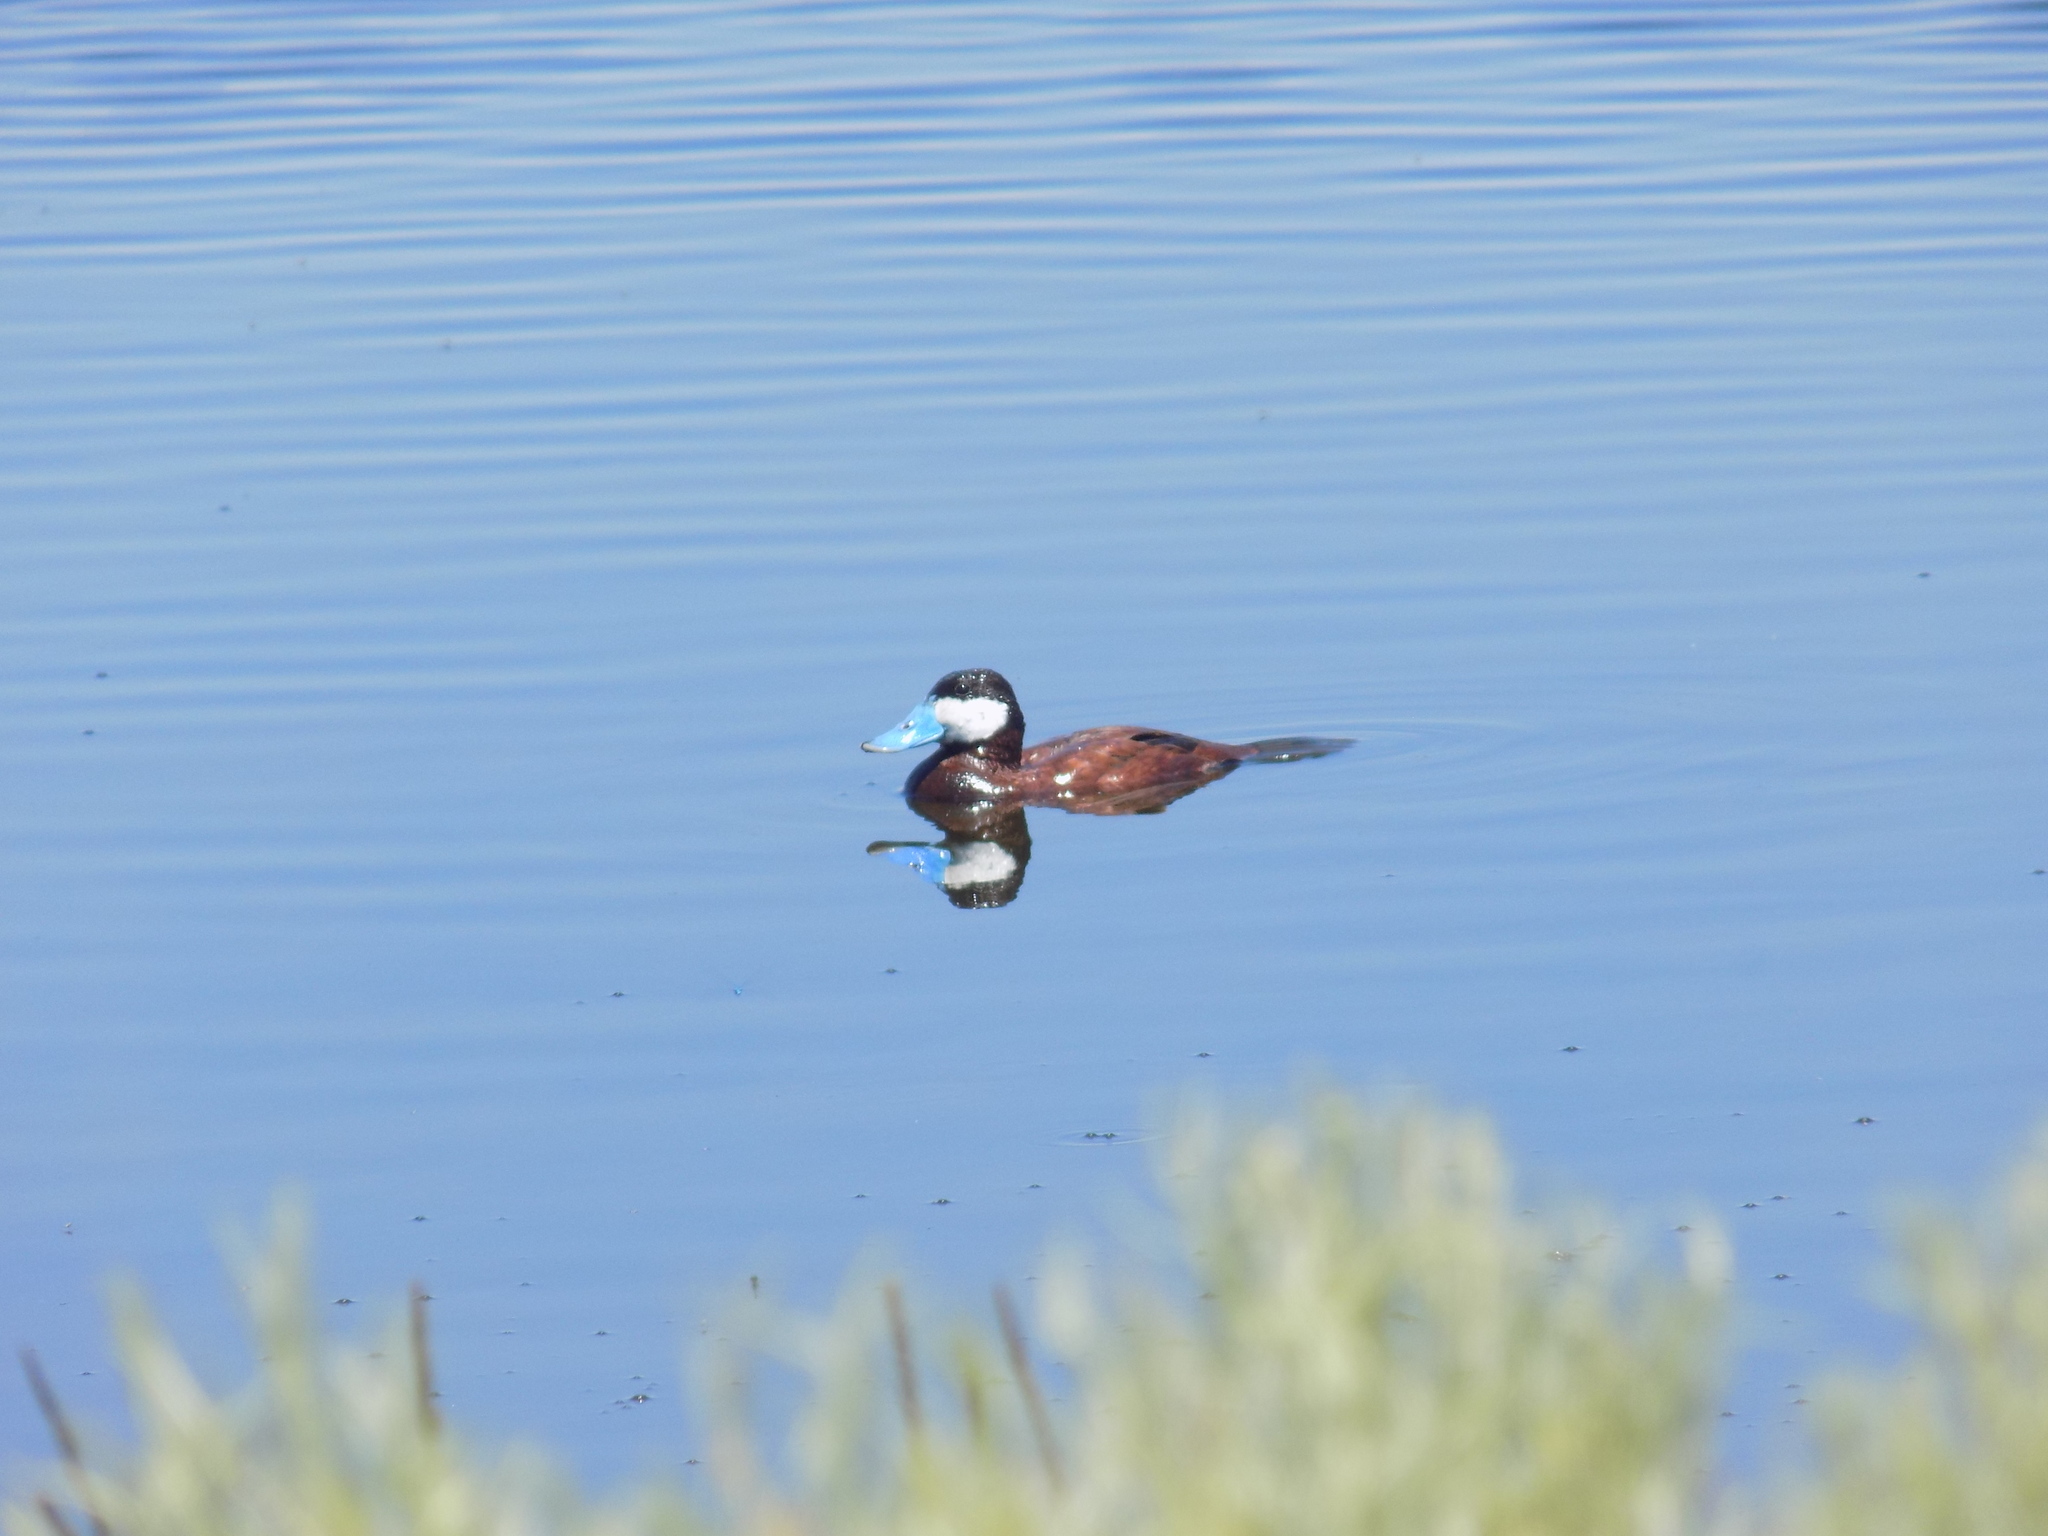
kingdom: Animalia
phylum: Chordata
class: Aves
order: Anseriformes
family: Anatidae
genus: Oxyura
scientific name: Oxyura jamaicensis
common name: Ruddy duck
